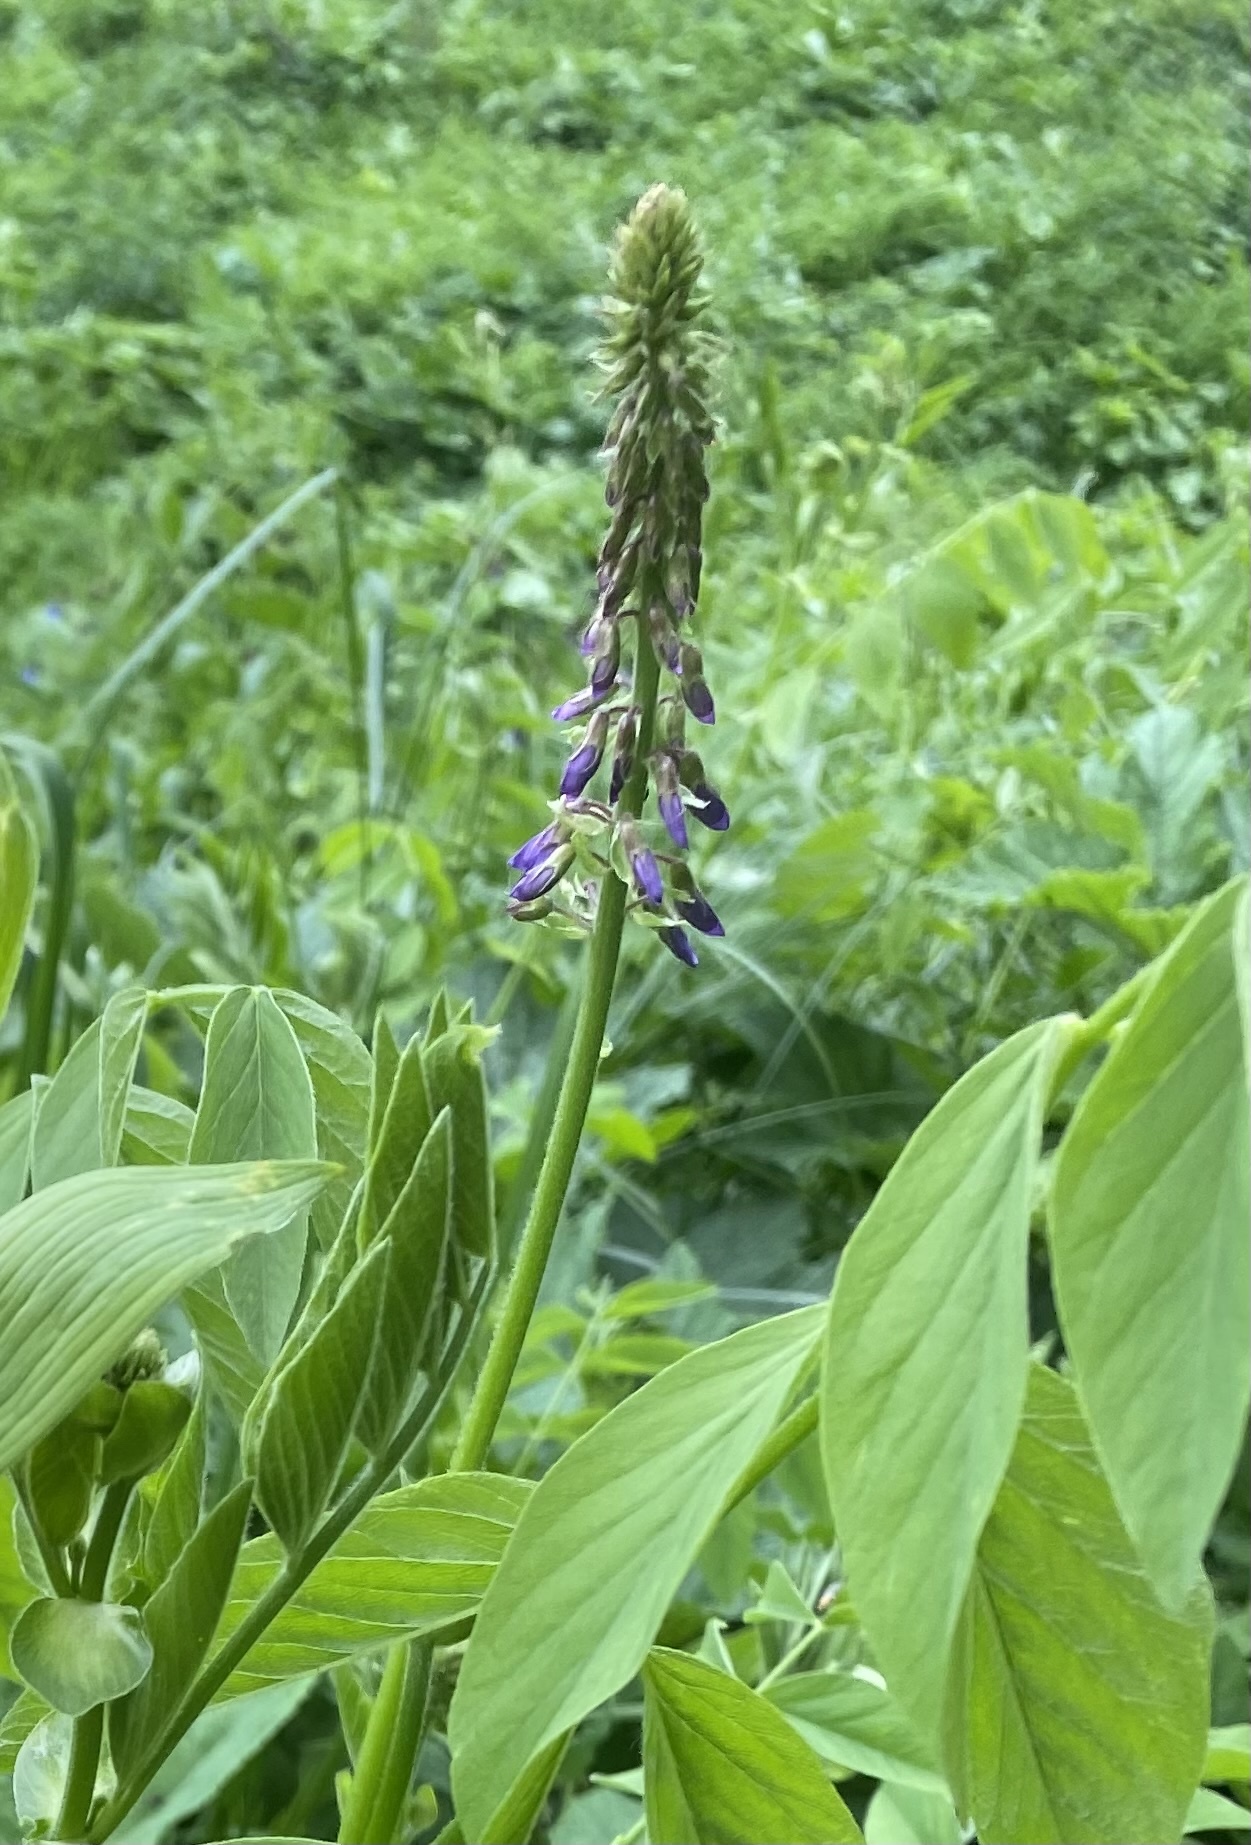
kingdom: Plantae
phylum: Tracheophyta
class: Magnoliopsida
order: Fabales
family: Fabaceae
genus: Galega
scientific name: Galega orientalis
